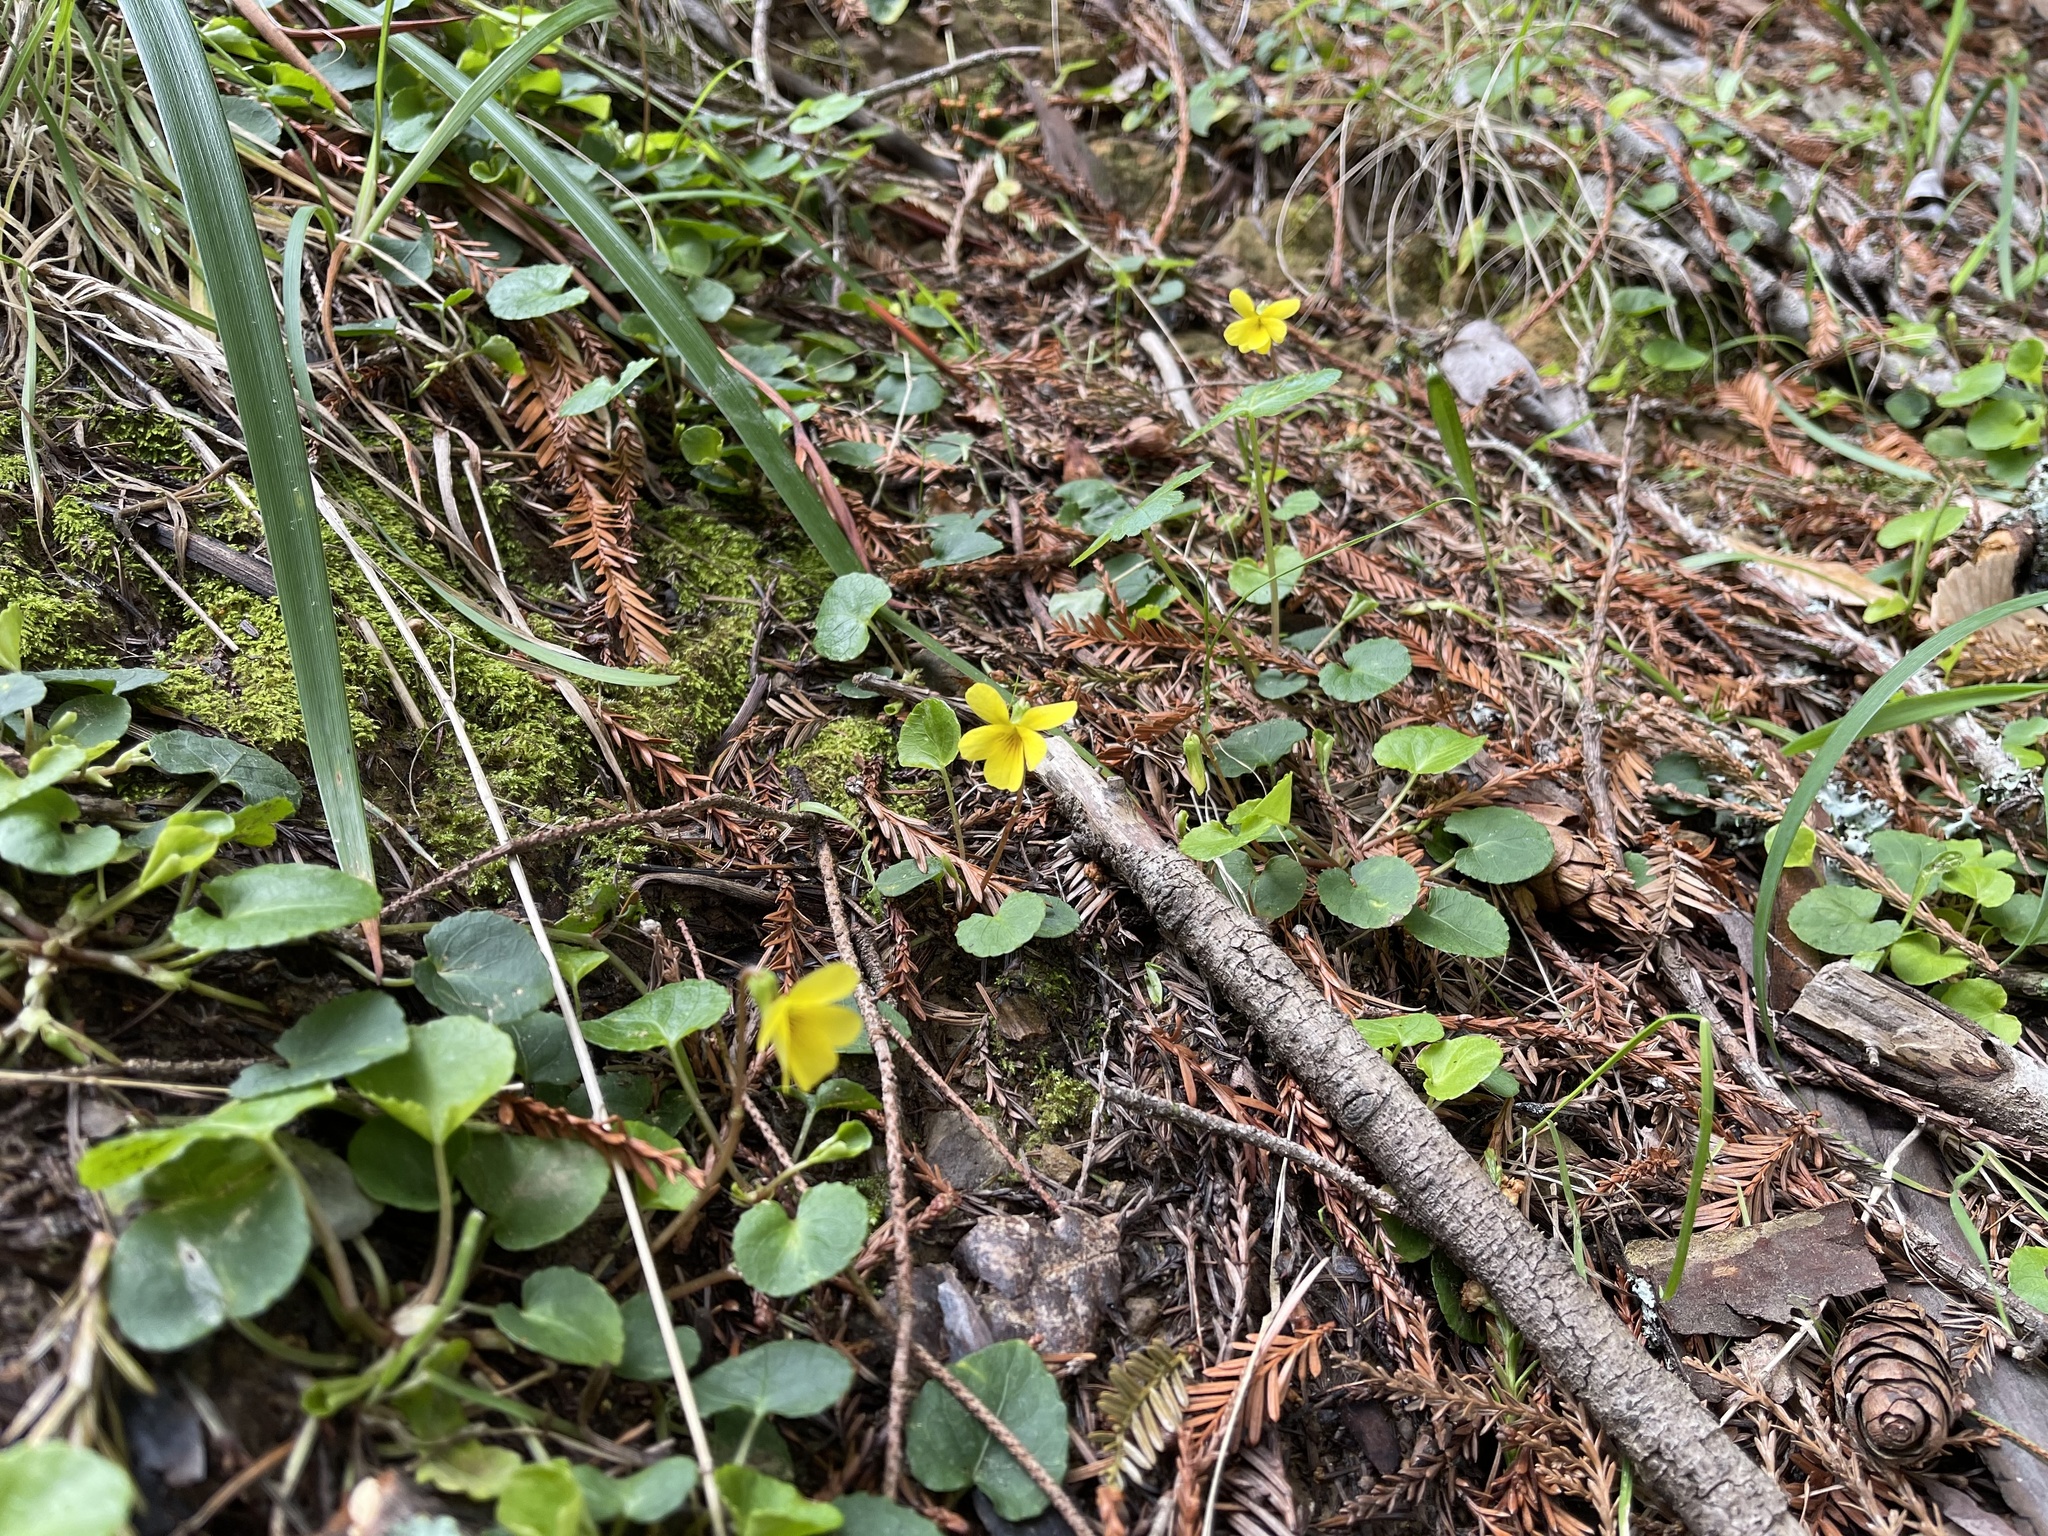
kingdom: Plantae
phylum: Tracheophyta
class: Magnoliopsida
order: Malpighiales
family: Violaceae
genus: Viola
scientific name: Viola sempervirens
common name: Evergreen violet
